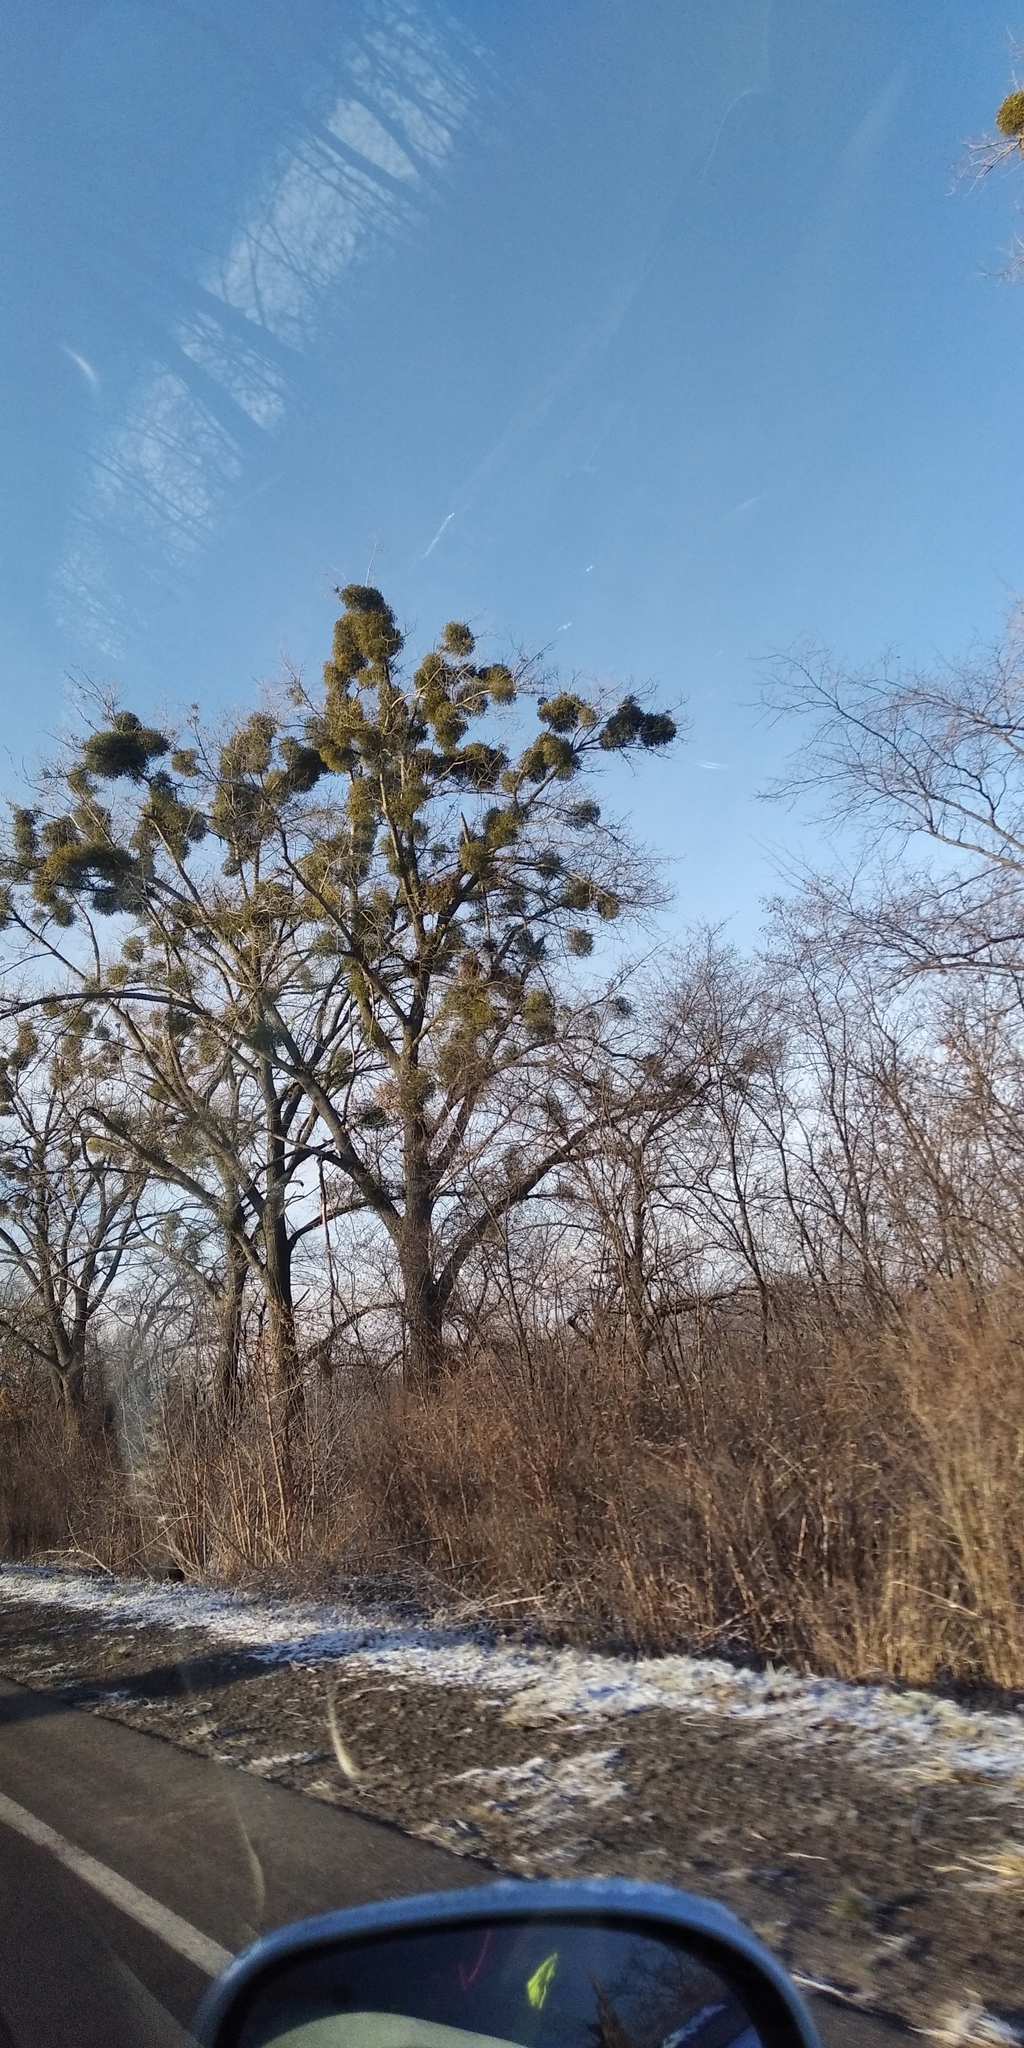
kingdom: Plantae
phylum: Tracheophyta
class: Magnoliopsida
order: Santalales
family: Viscaceae
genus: Viscum
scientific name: Viscum album
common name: Mistletoe
